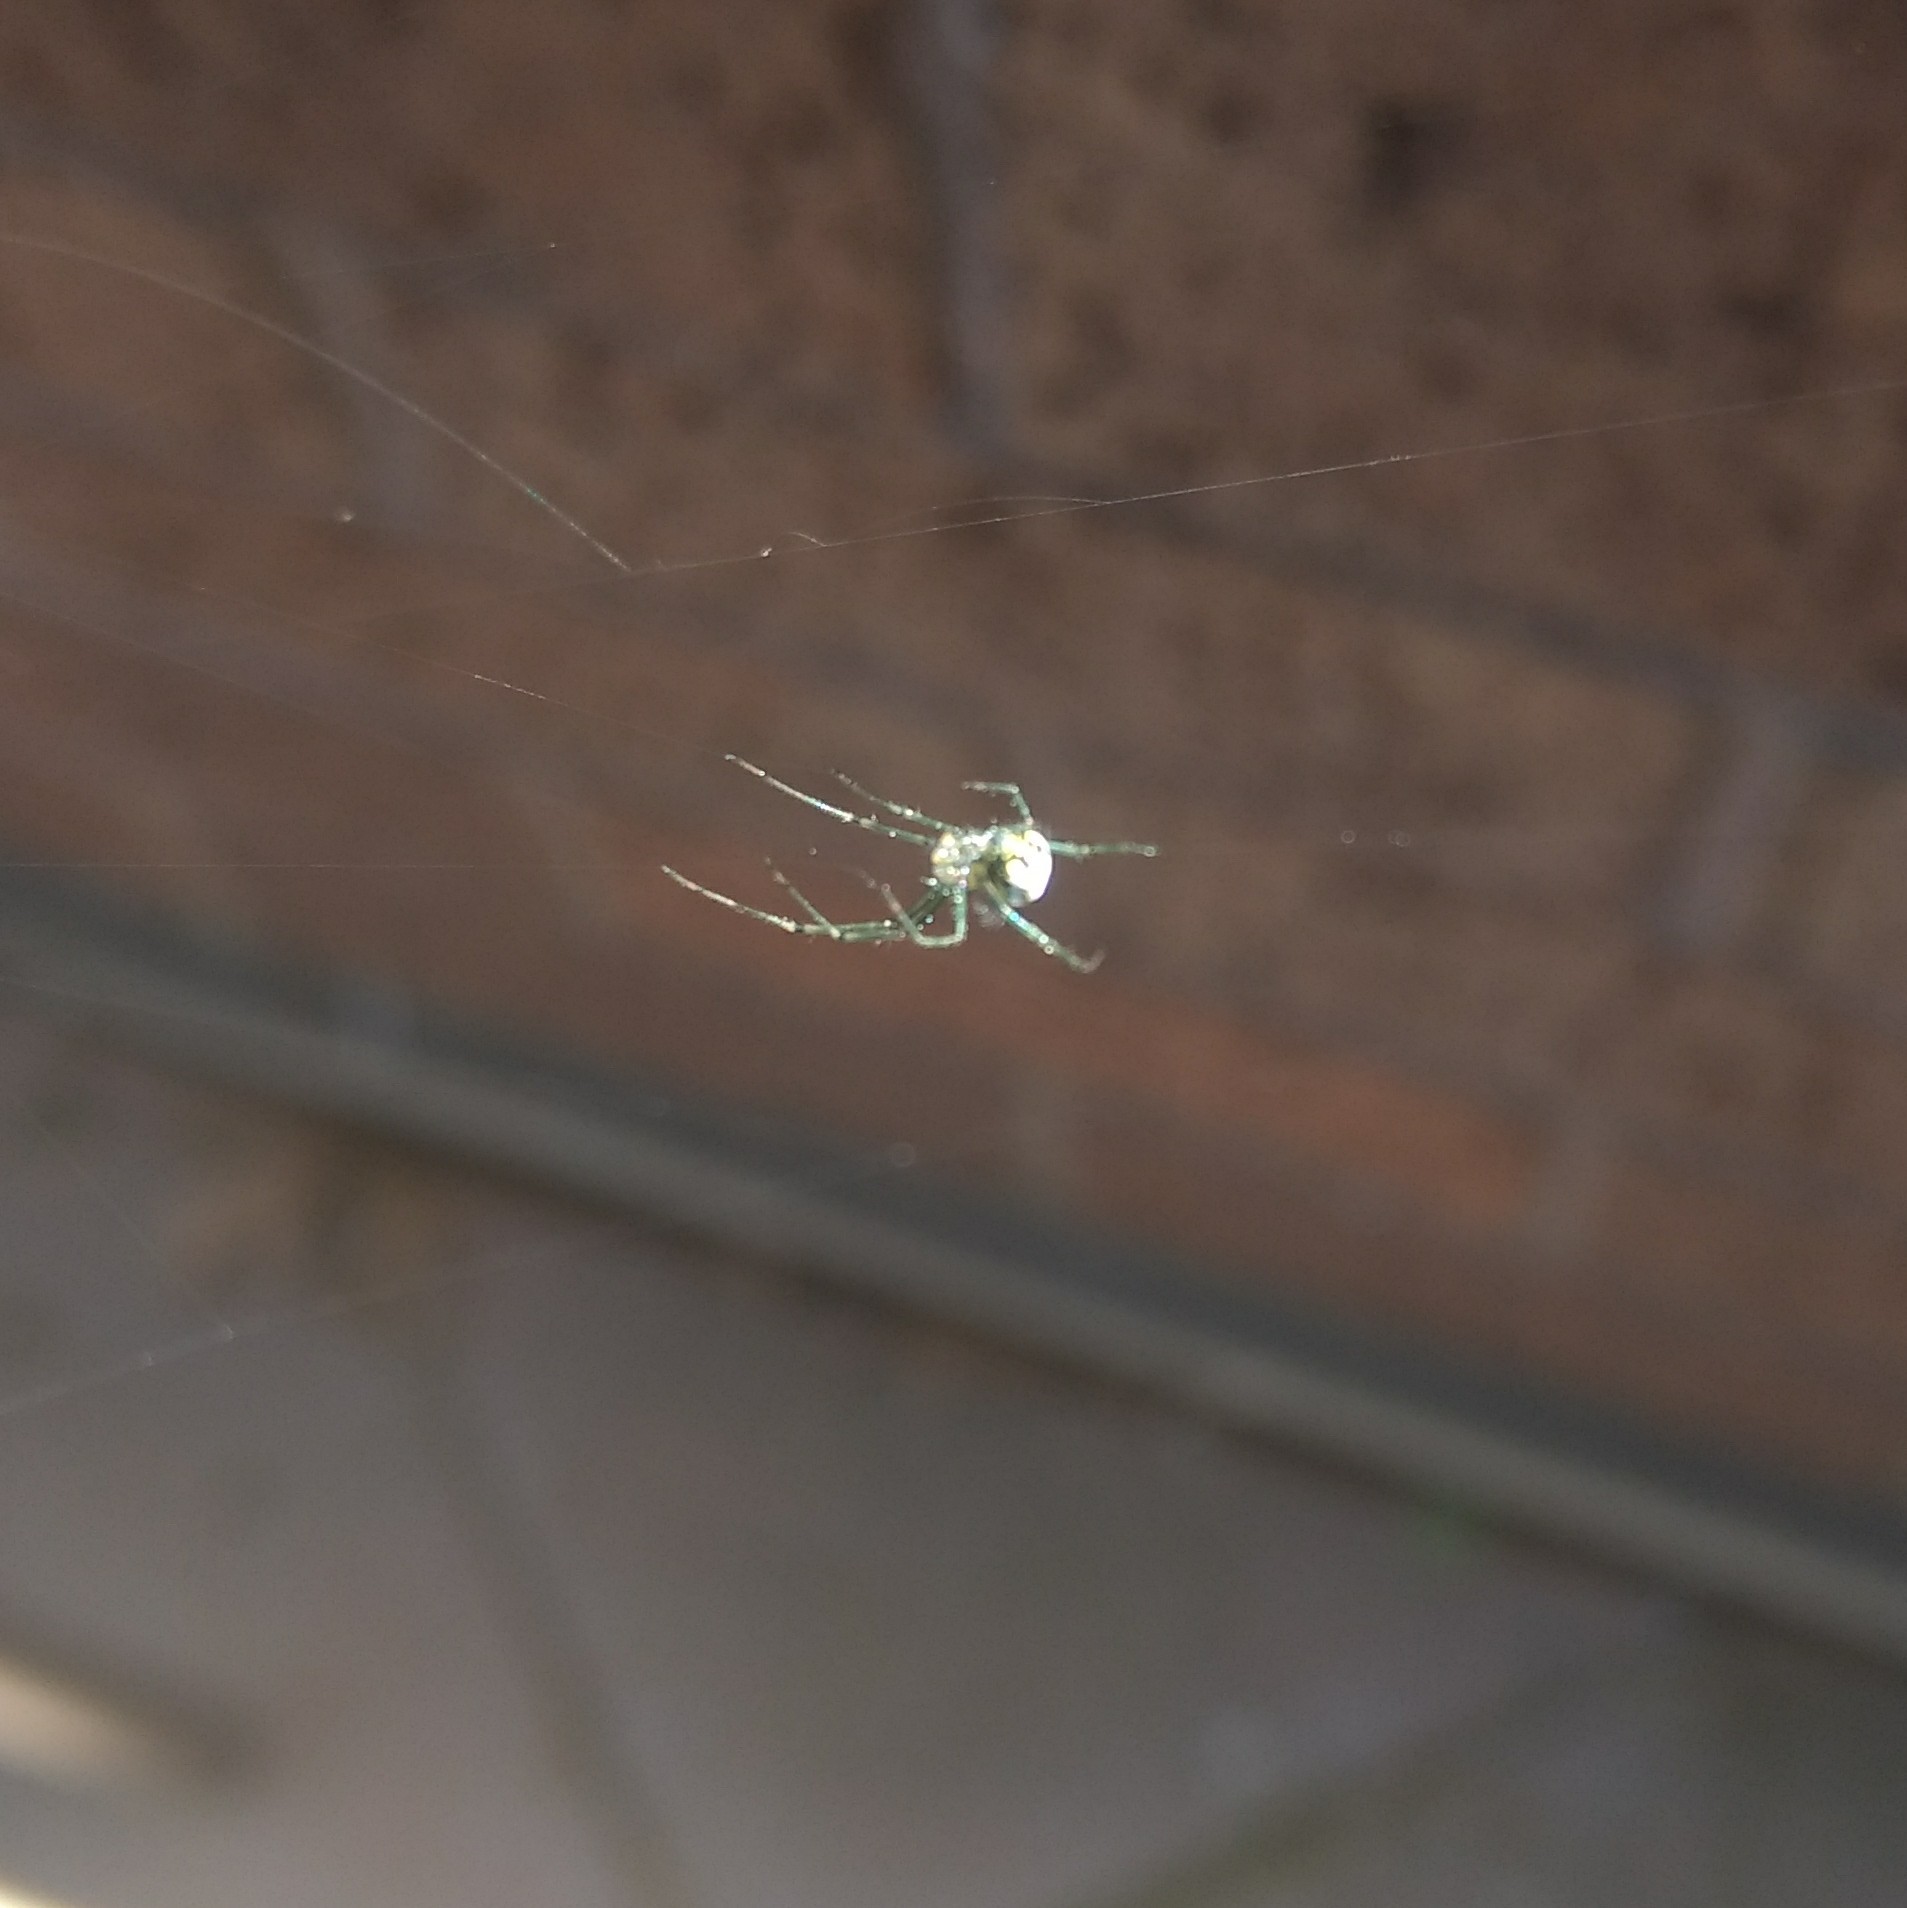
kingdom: Animalia
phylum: Arthropoda
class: Arachnida
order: Araneae
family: Tetragnathidae
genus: Leucauge
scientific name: Leucauge venusta
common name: Longjawed orb weavers
